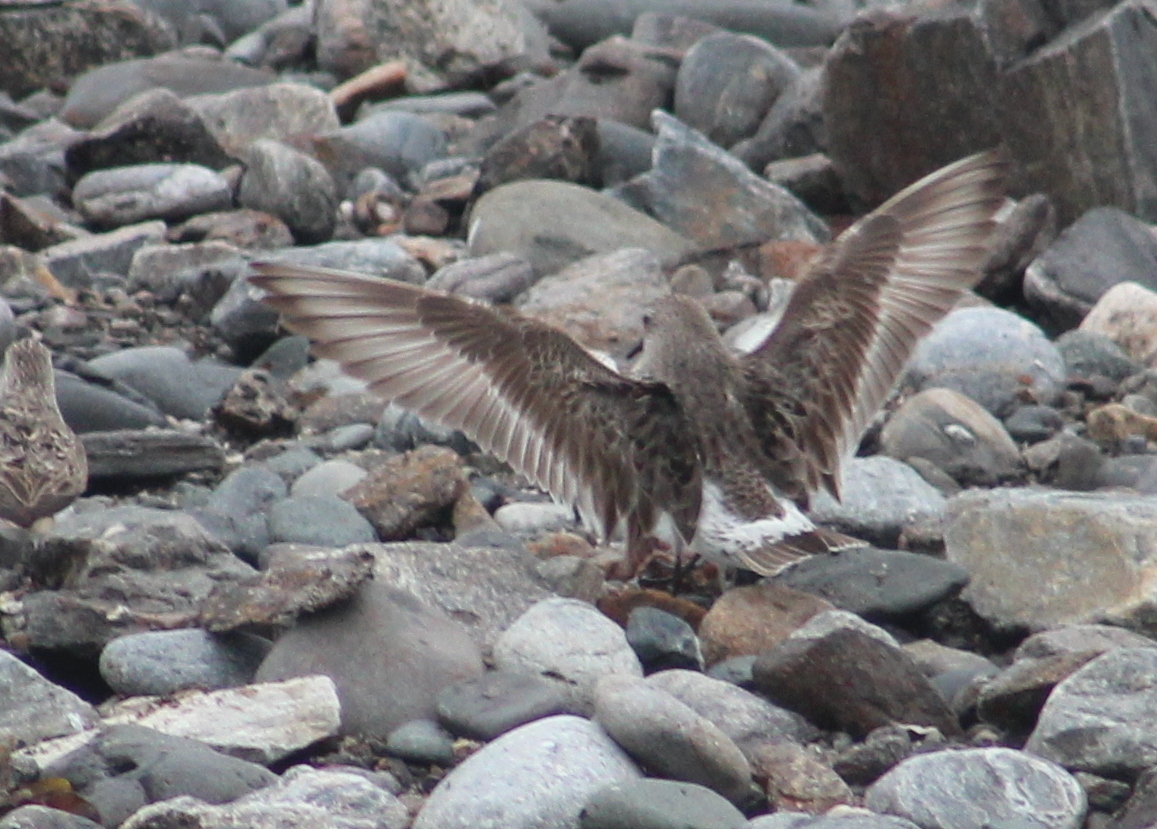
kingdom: Animalia
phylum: Chordata
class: Aves
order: Charadriiformes
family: Scolopacidae
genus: Calidris
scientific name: Calidris fuscicollis
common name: White-rumped sandpiper
